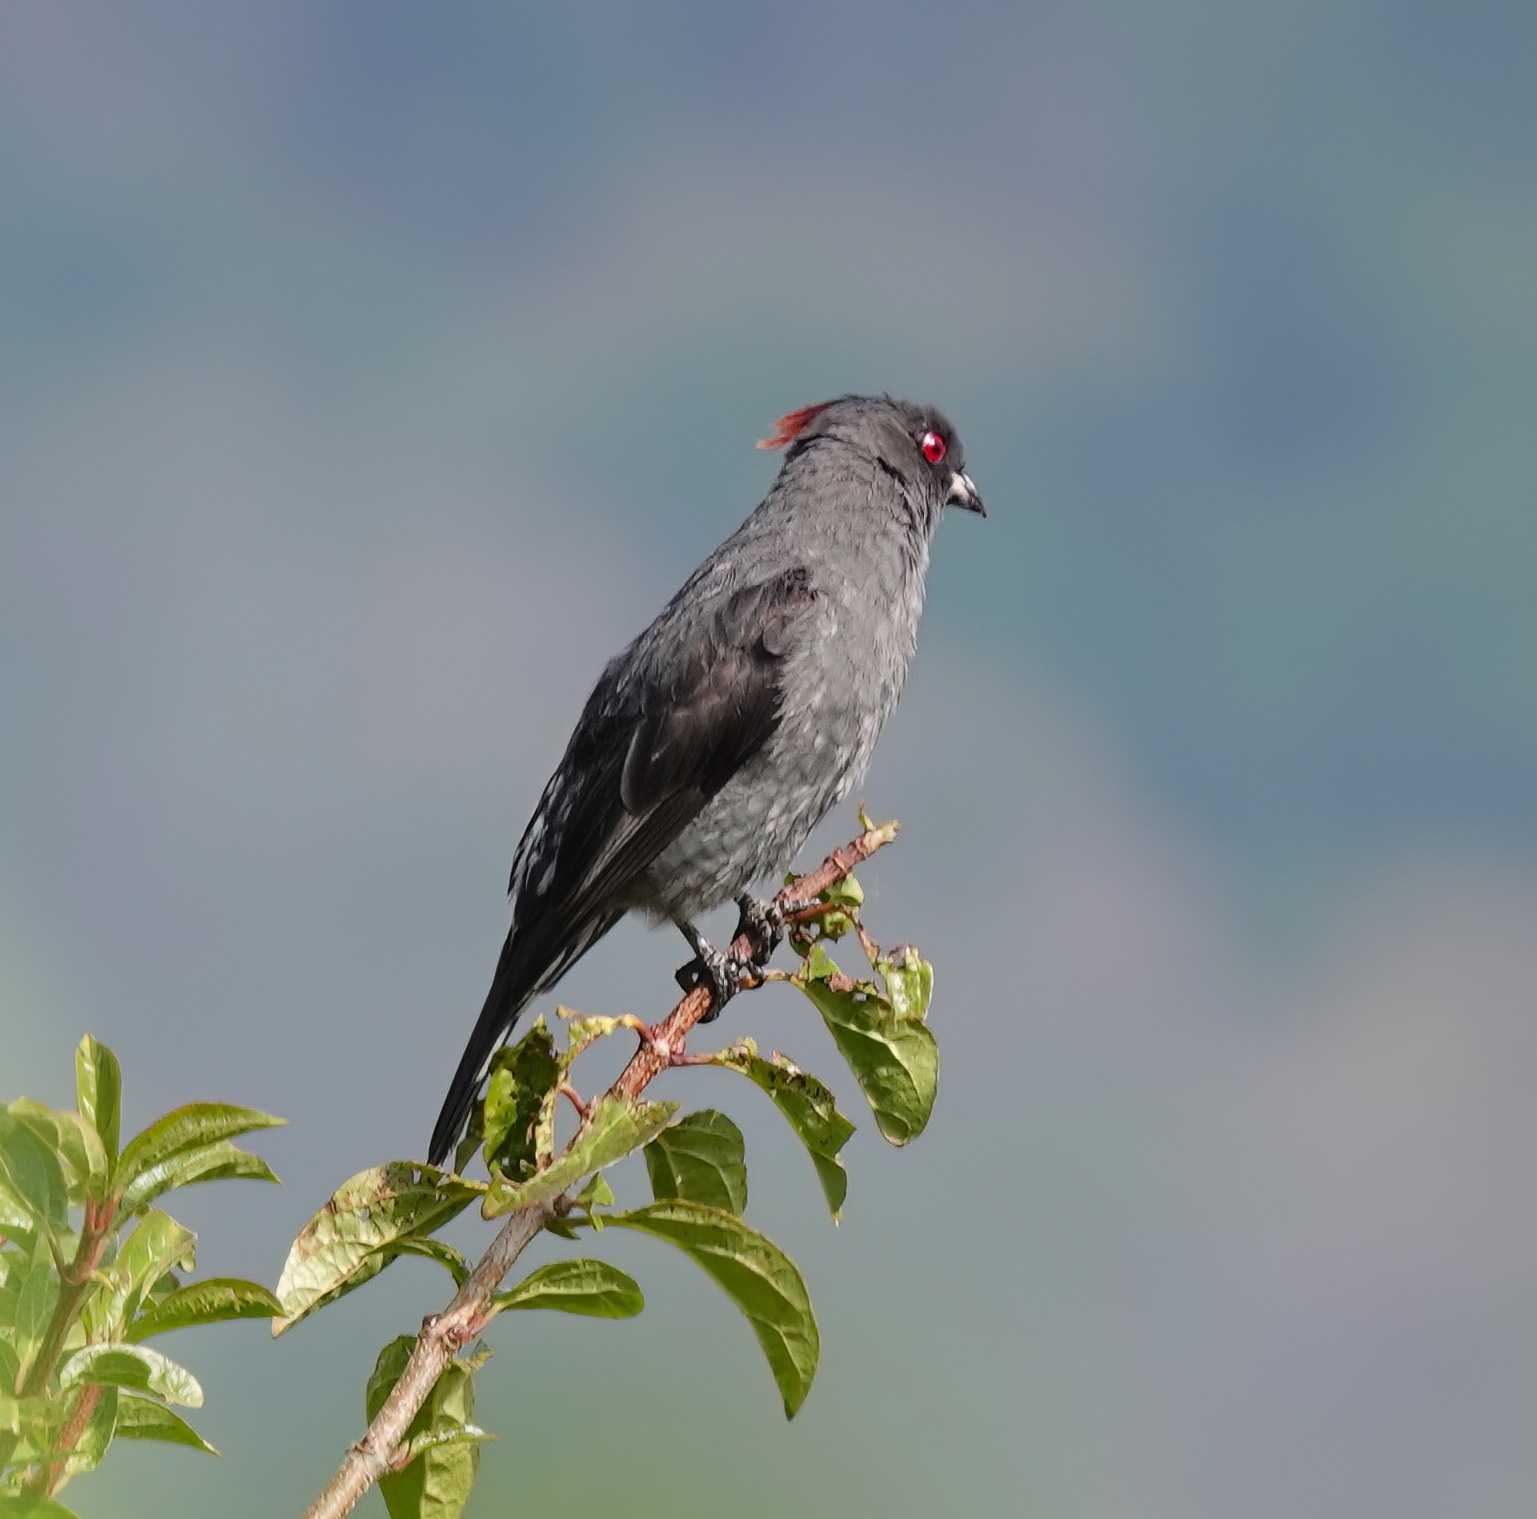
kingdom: Animalia
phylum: Chordata
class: Aves
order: Passeriformes
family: Cotingidae
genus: Ampelion
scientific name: Ampelion rubrocristatus
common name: Red-crested cotinga
